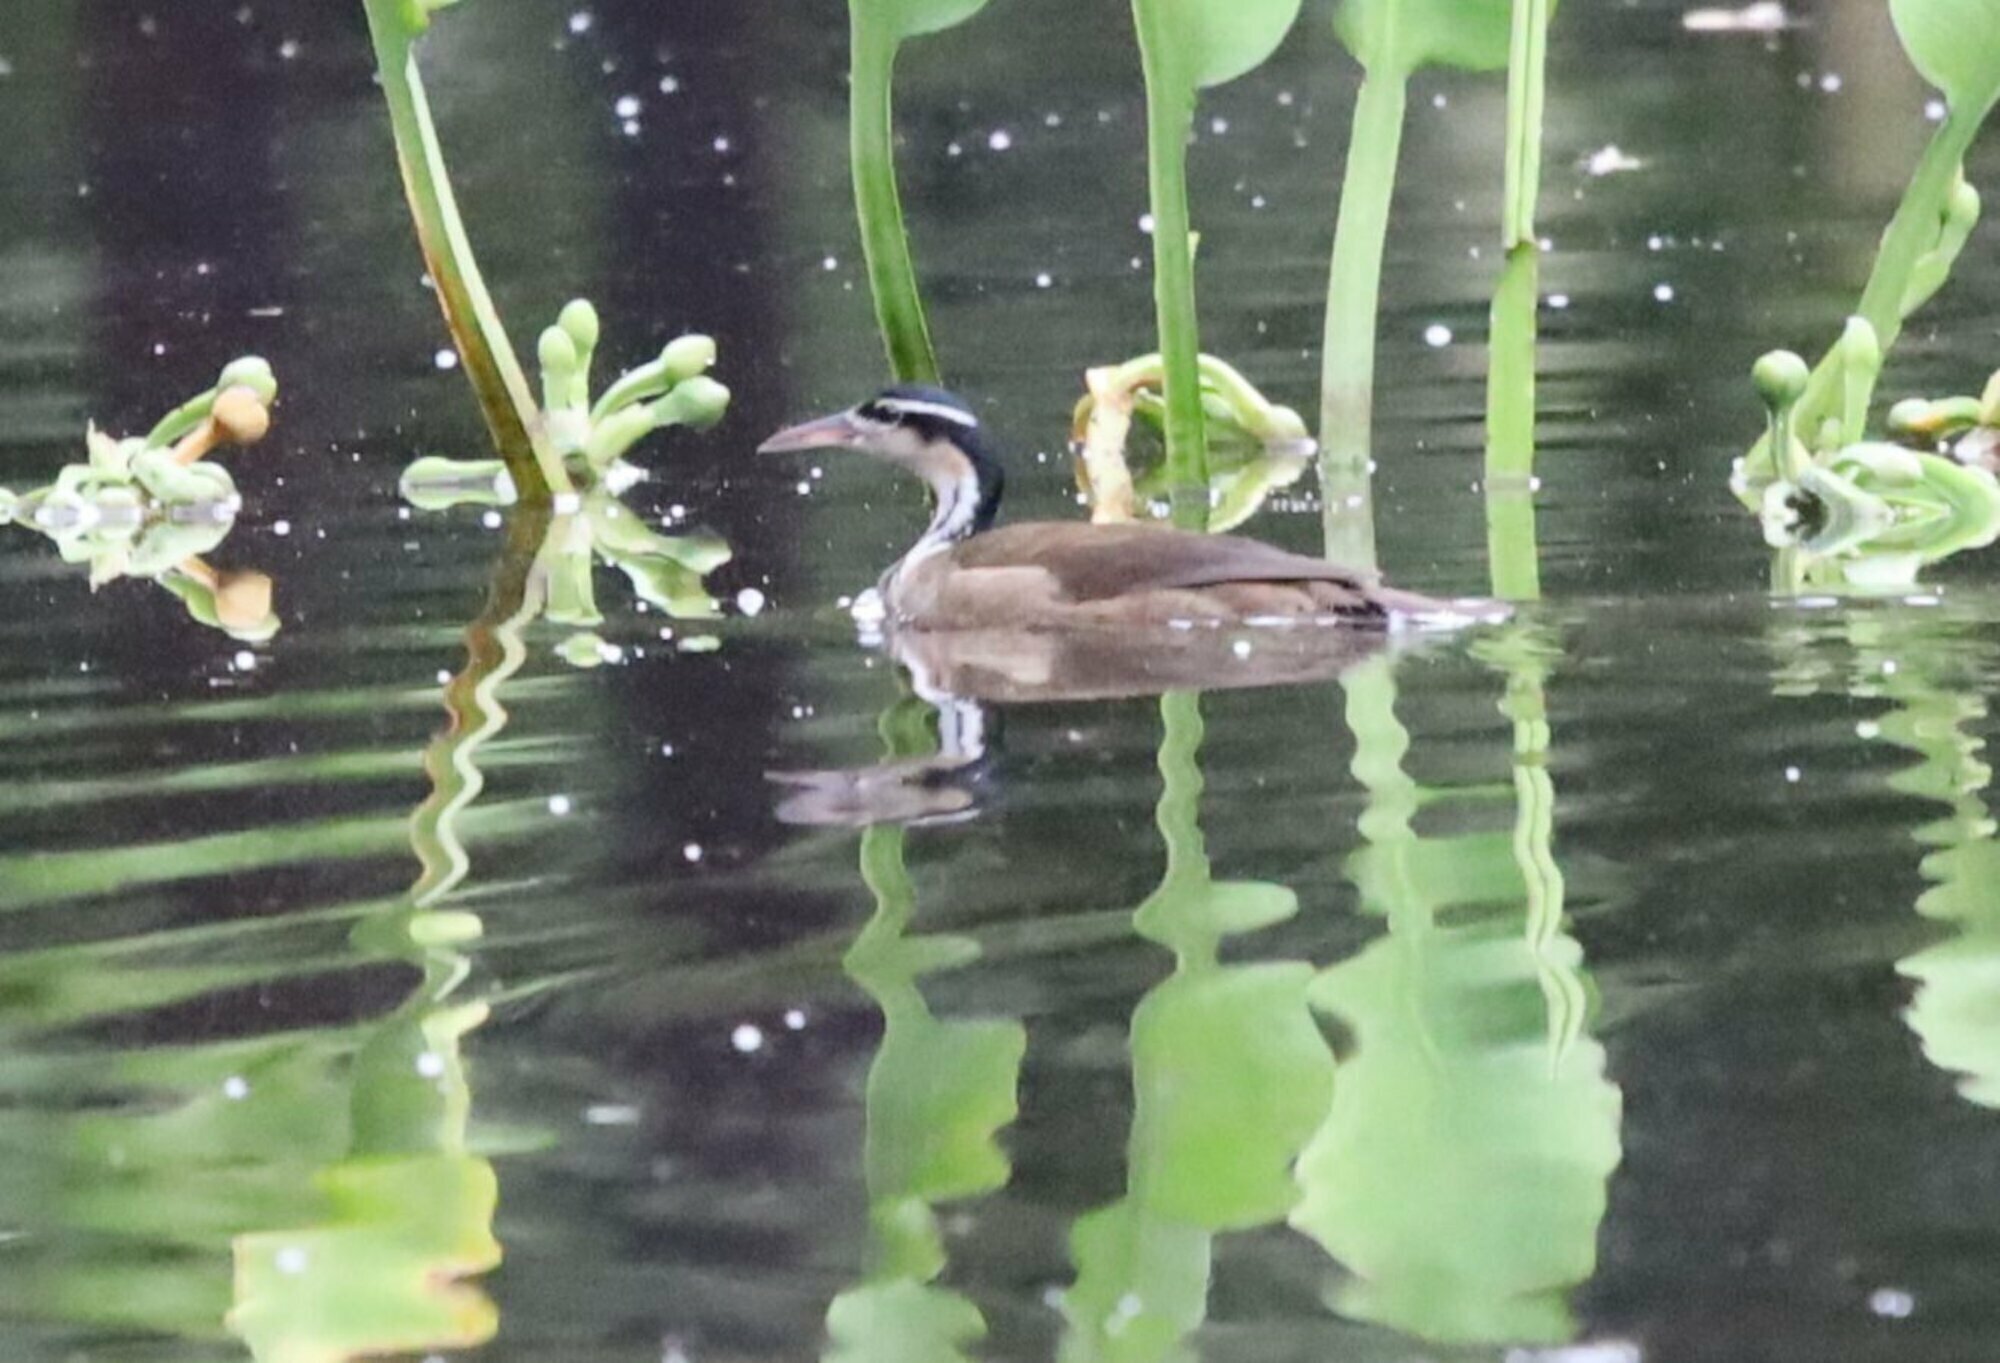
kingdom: Animalia
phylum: Chordata
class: Aves
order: Gruiformes
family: Heliornithidae
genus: Heliornis
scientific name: Heliornis fulica
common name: Sungrebe
